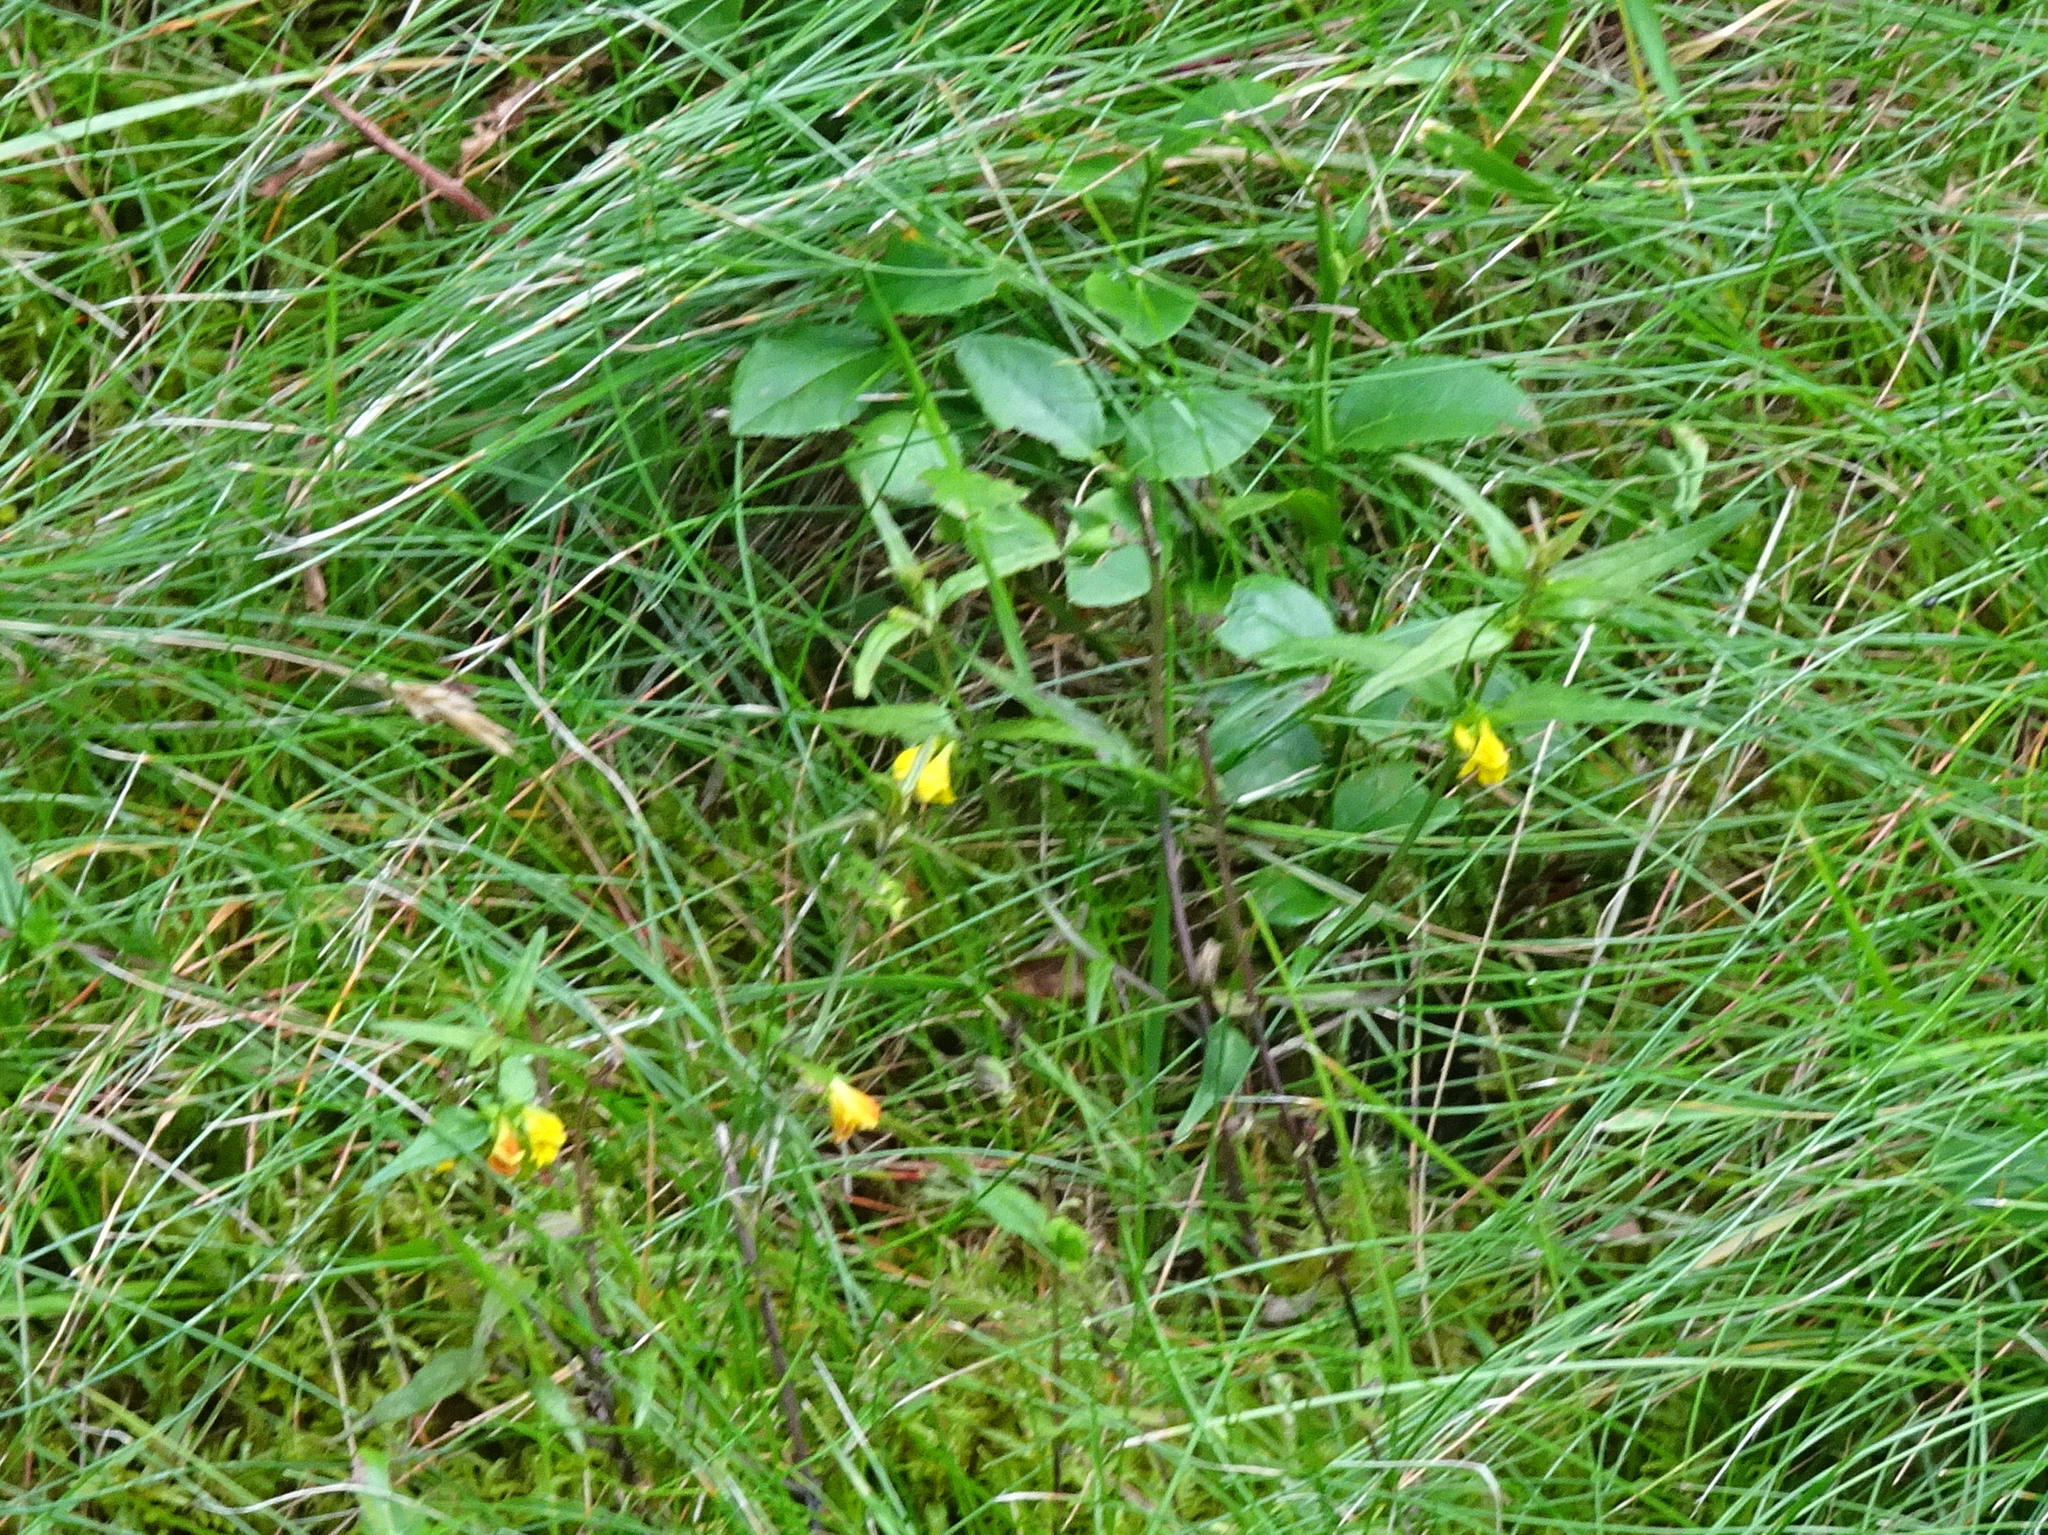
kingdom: Plantae
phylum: Tracheophyta
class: Magnoliopsida
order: Lamiales
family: Orobanchaceae
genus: Melampyrum
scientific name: Melampyrum sylvaticum
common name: Small cow-wheat
